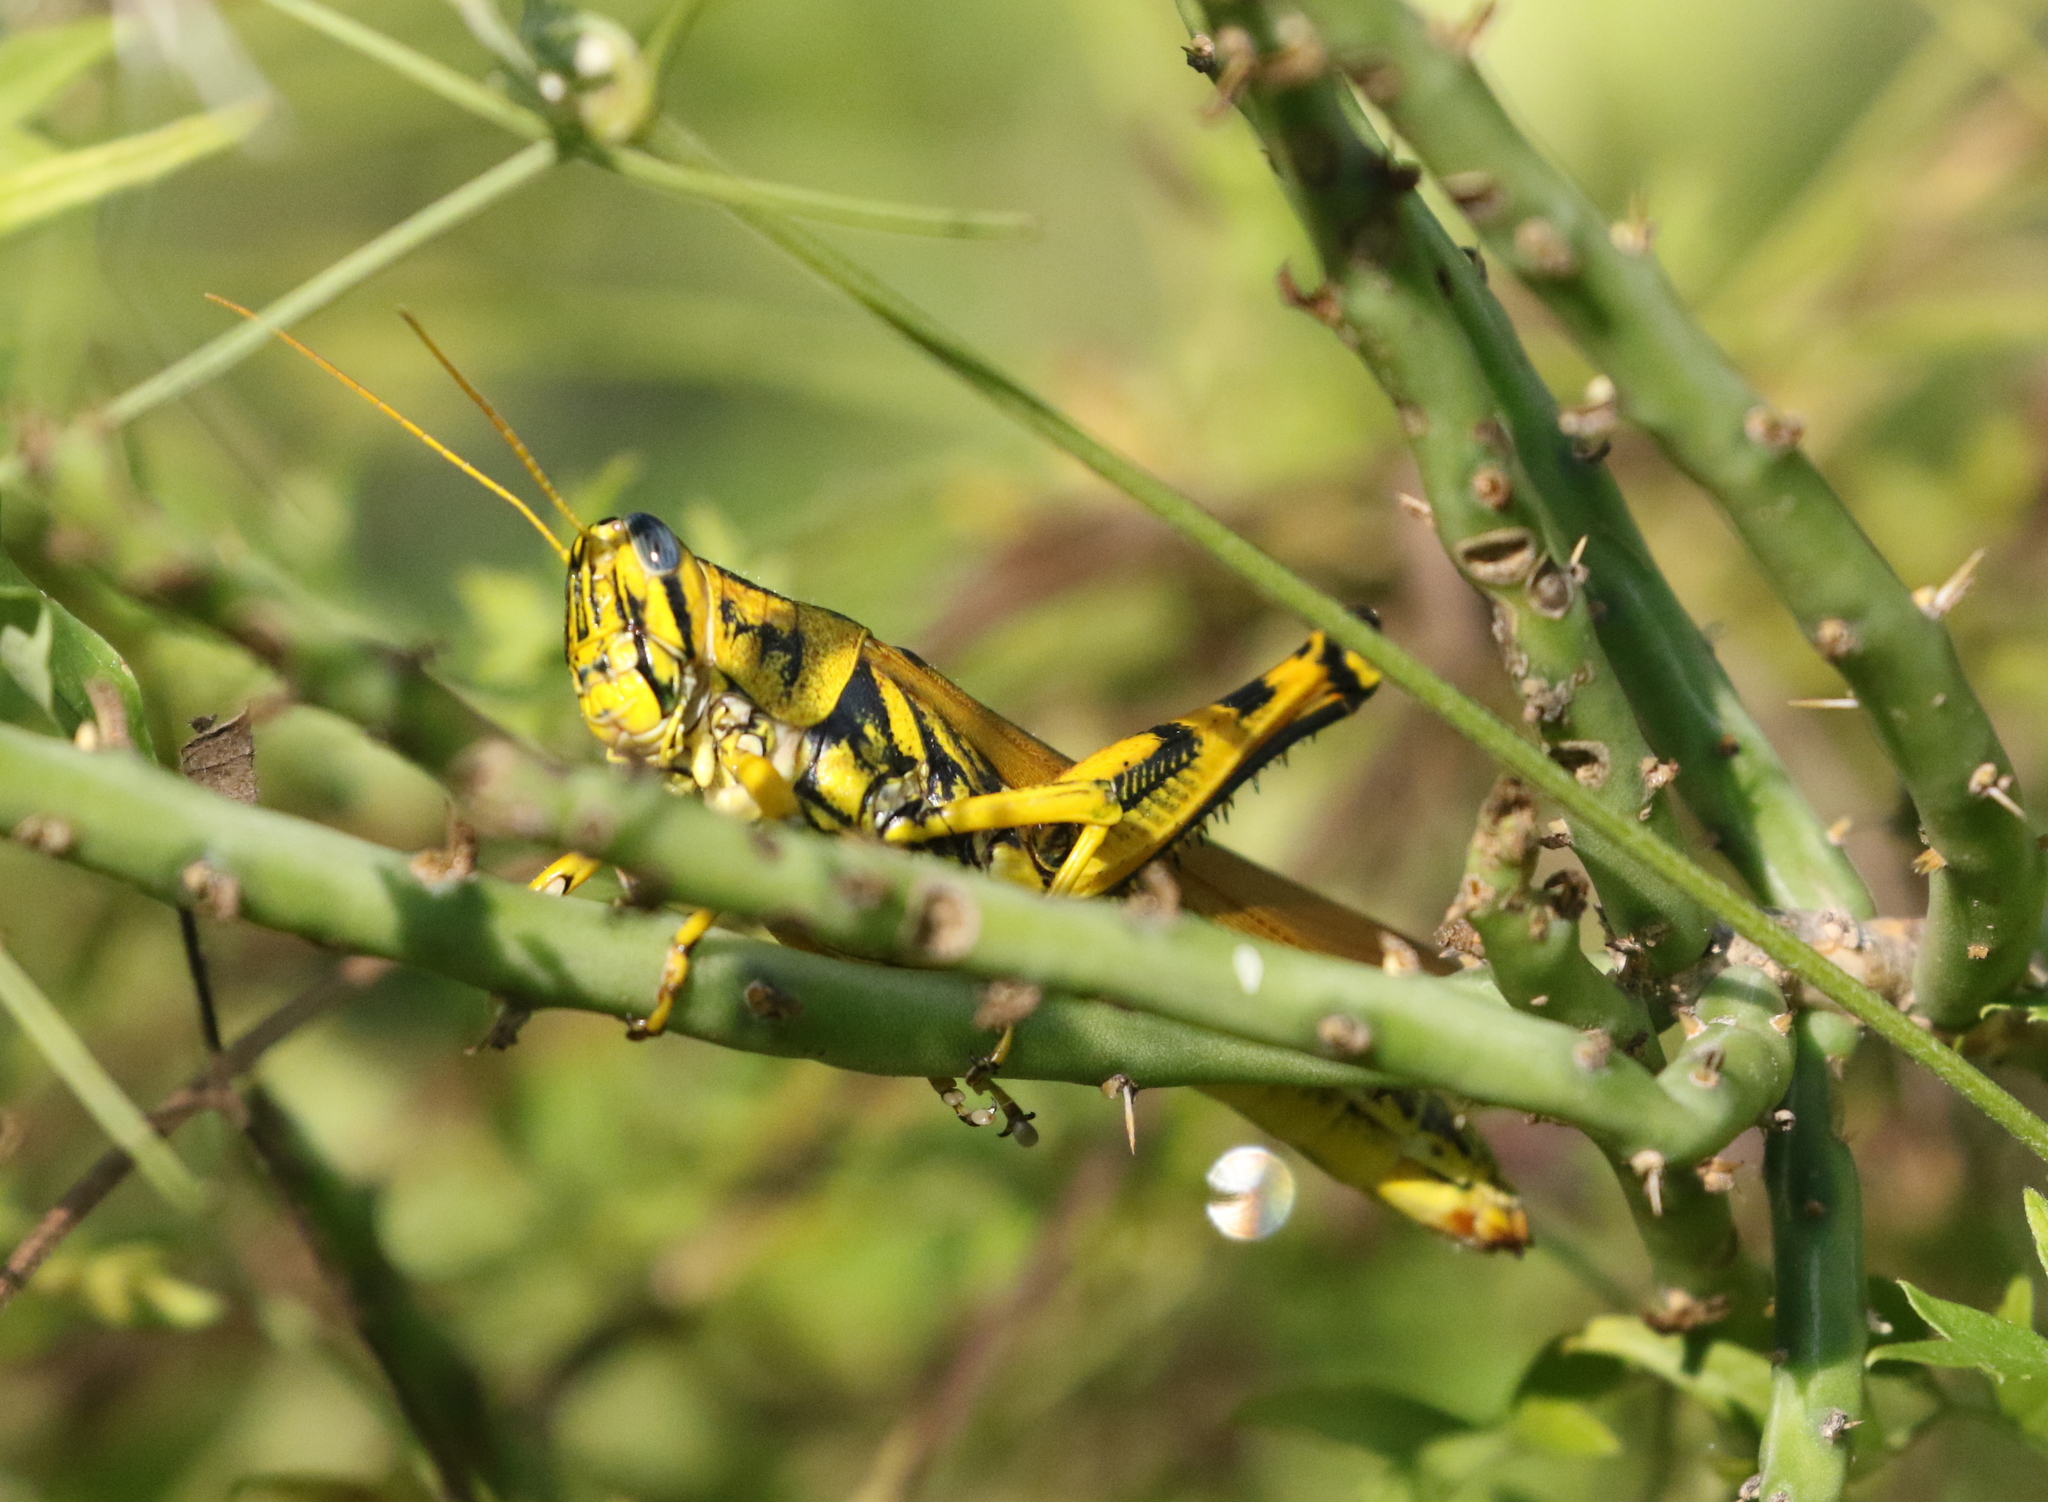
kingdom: Animalia
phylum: Arthropoda
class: Insecta
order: Orthoptera
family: Acrididae
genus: Schistocerca
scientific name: Schistocerca lineata
